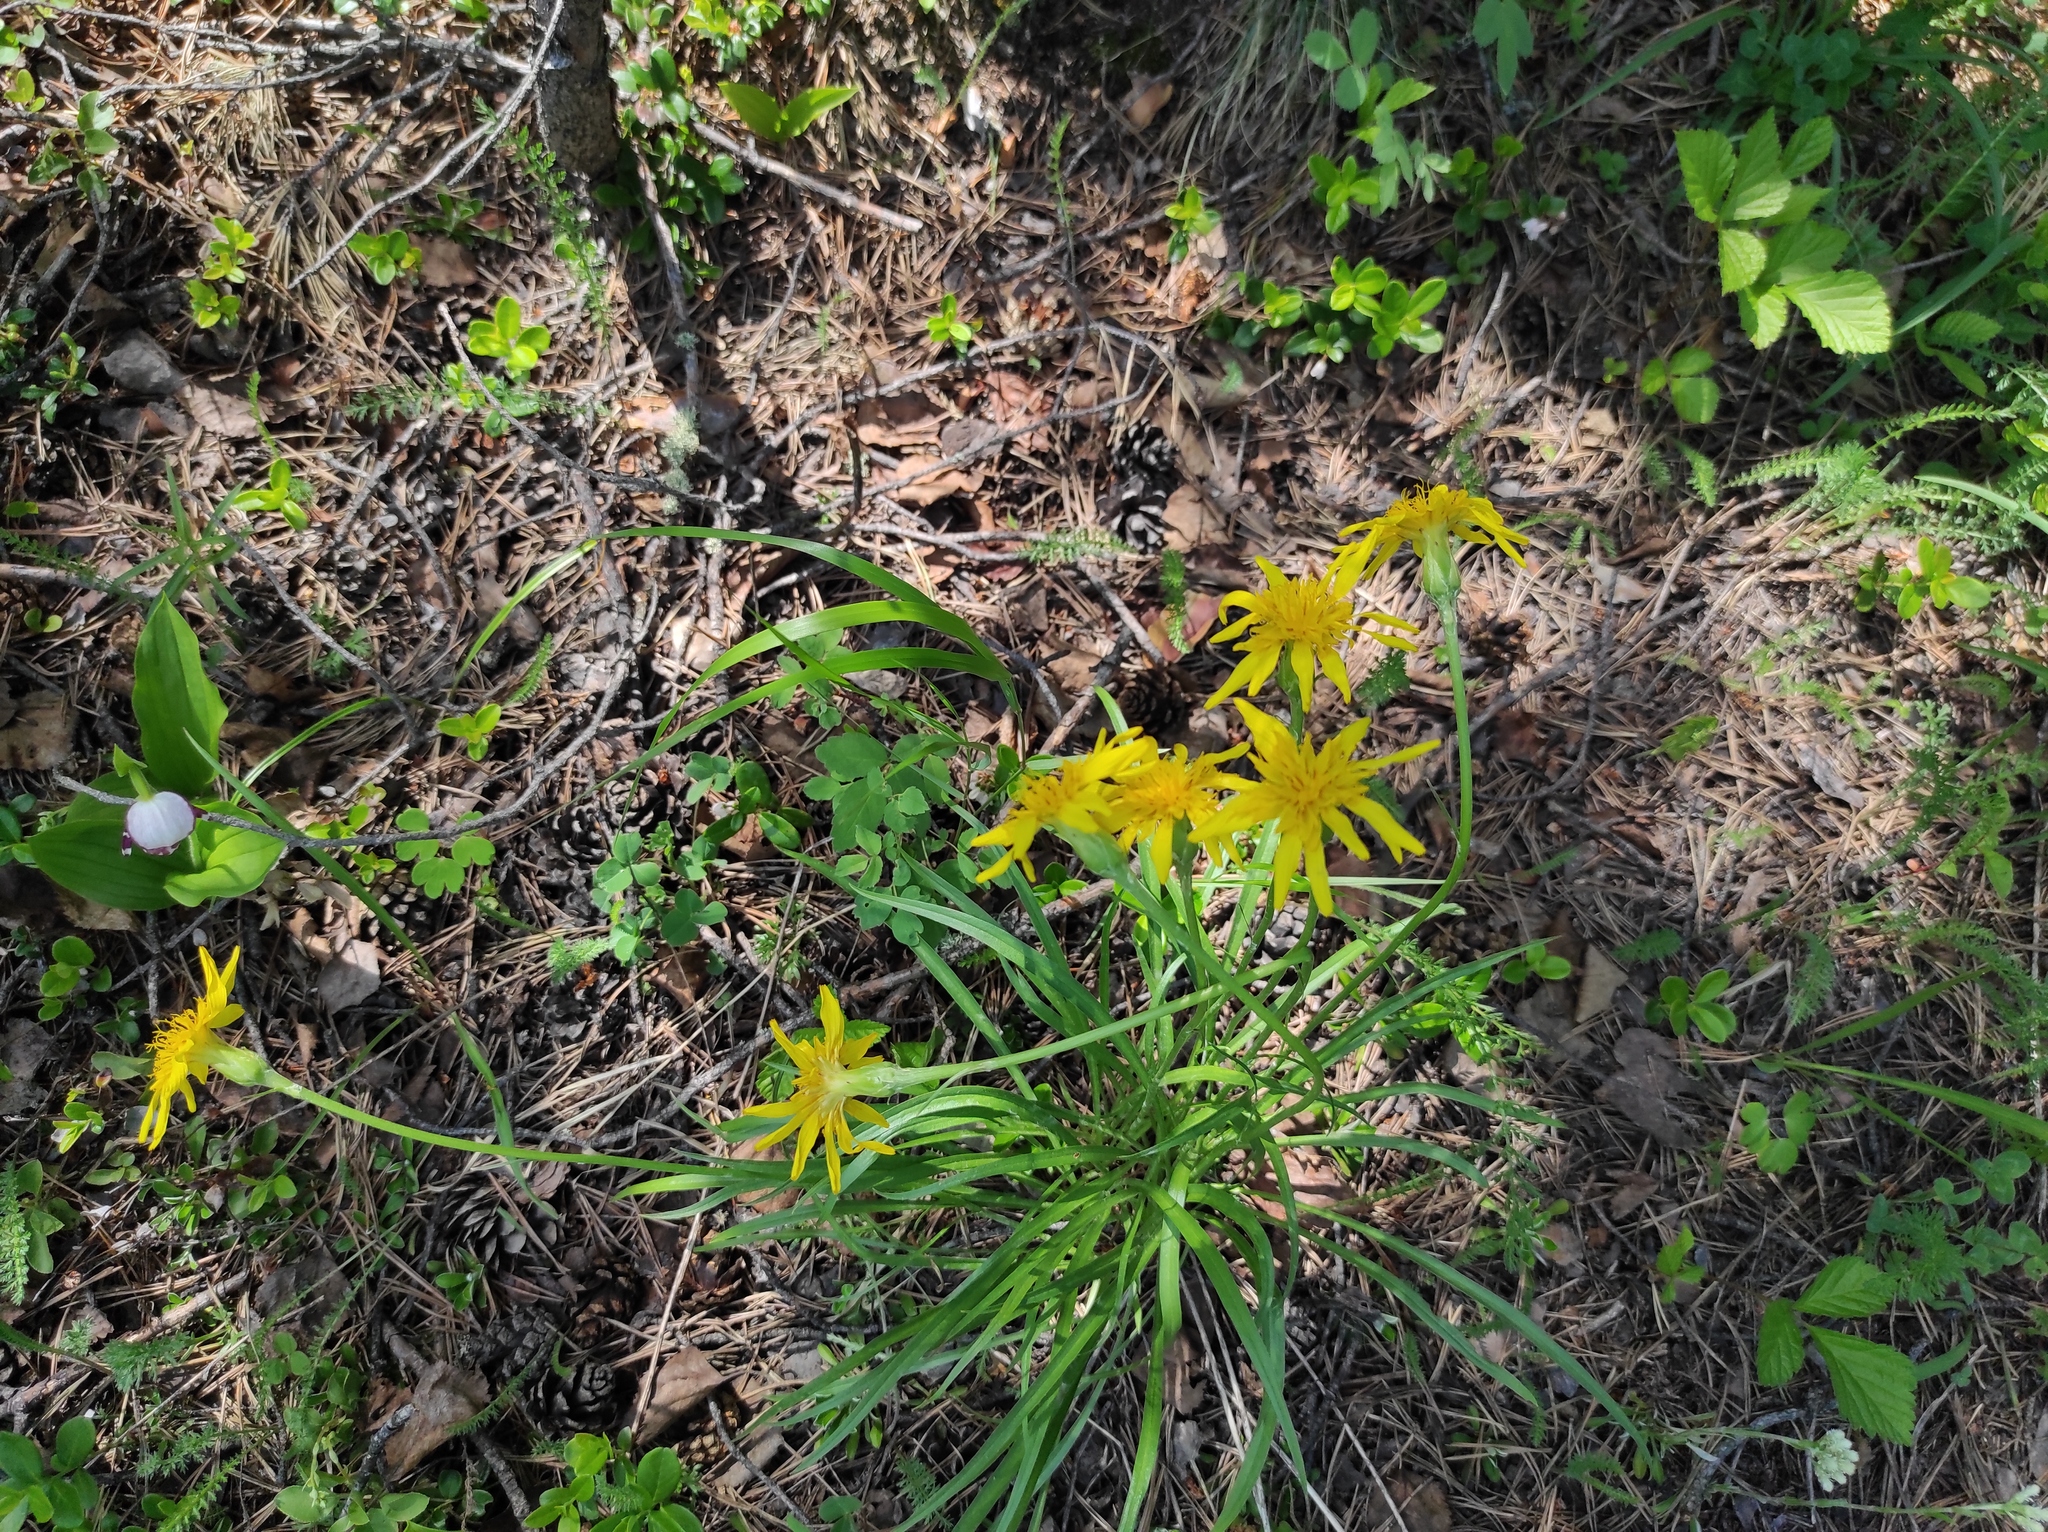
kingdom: Plantae
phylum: Tracheophyta
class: Magnoliopsida
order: Asterales
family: Asteraceae
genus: Scorzonera
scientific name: Scorzonera radiata
